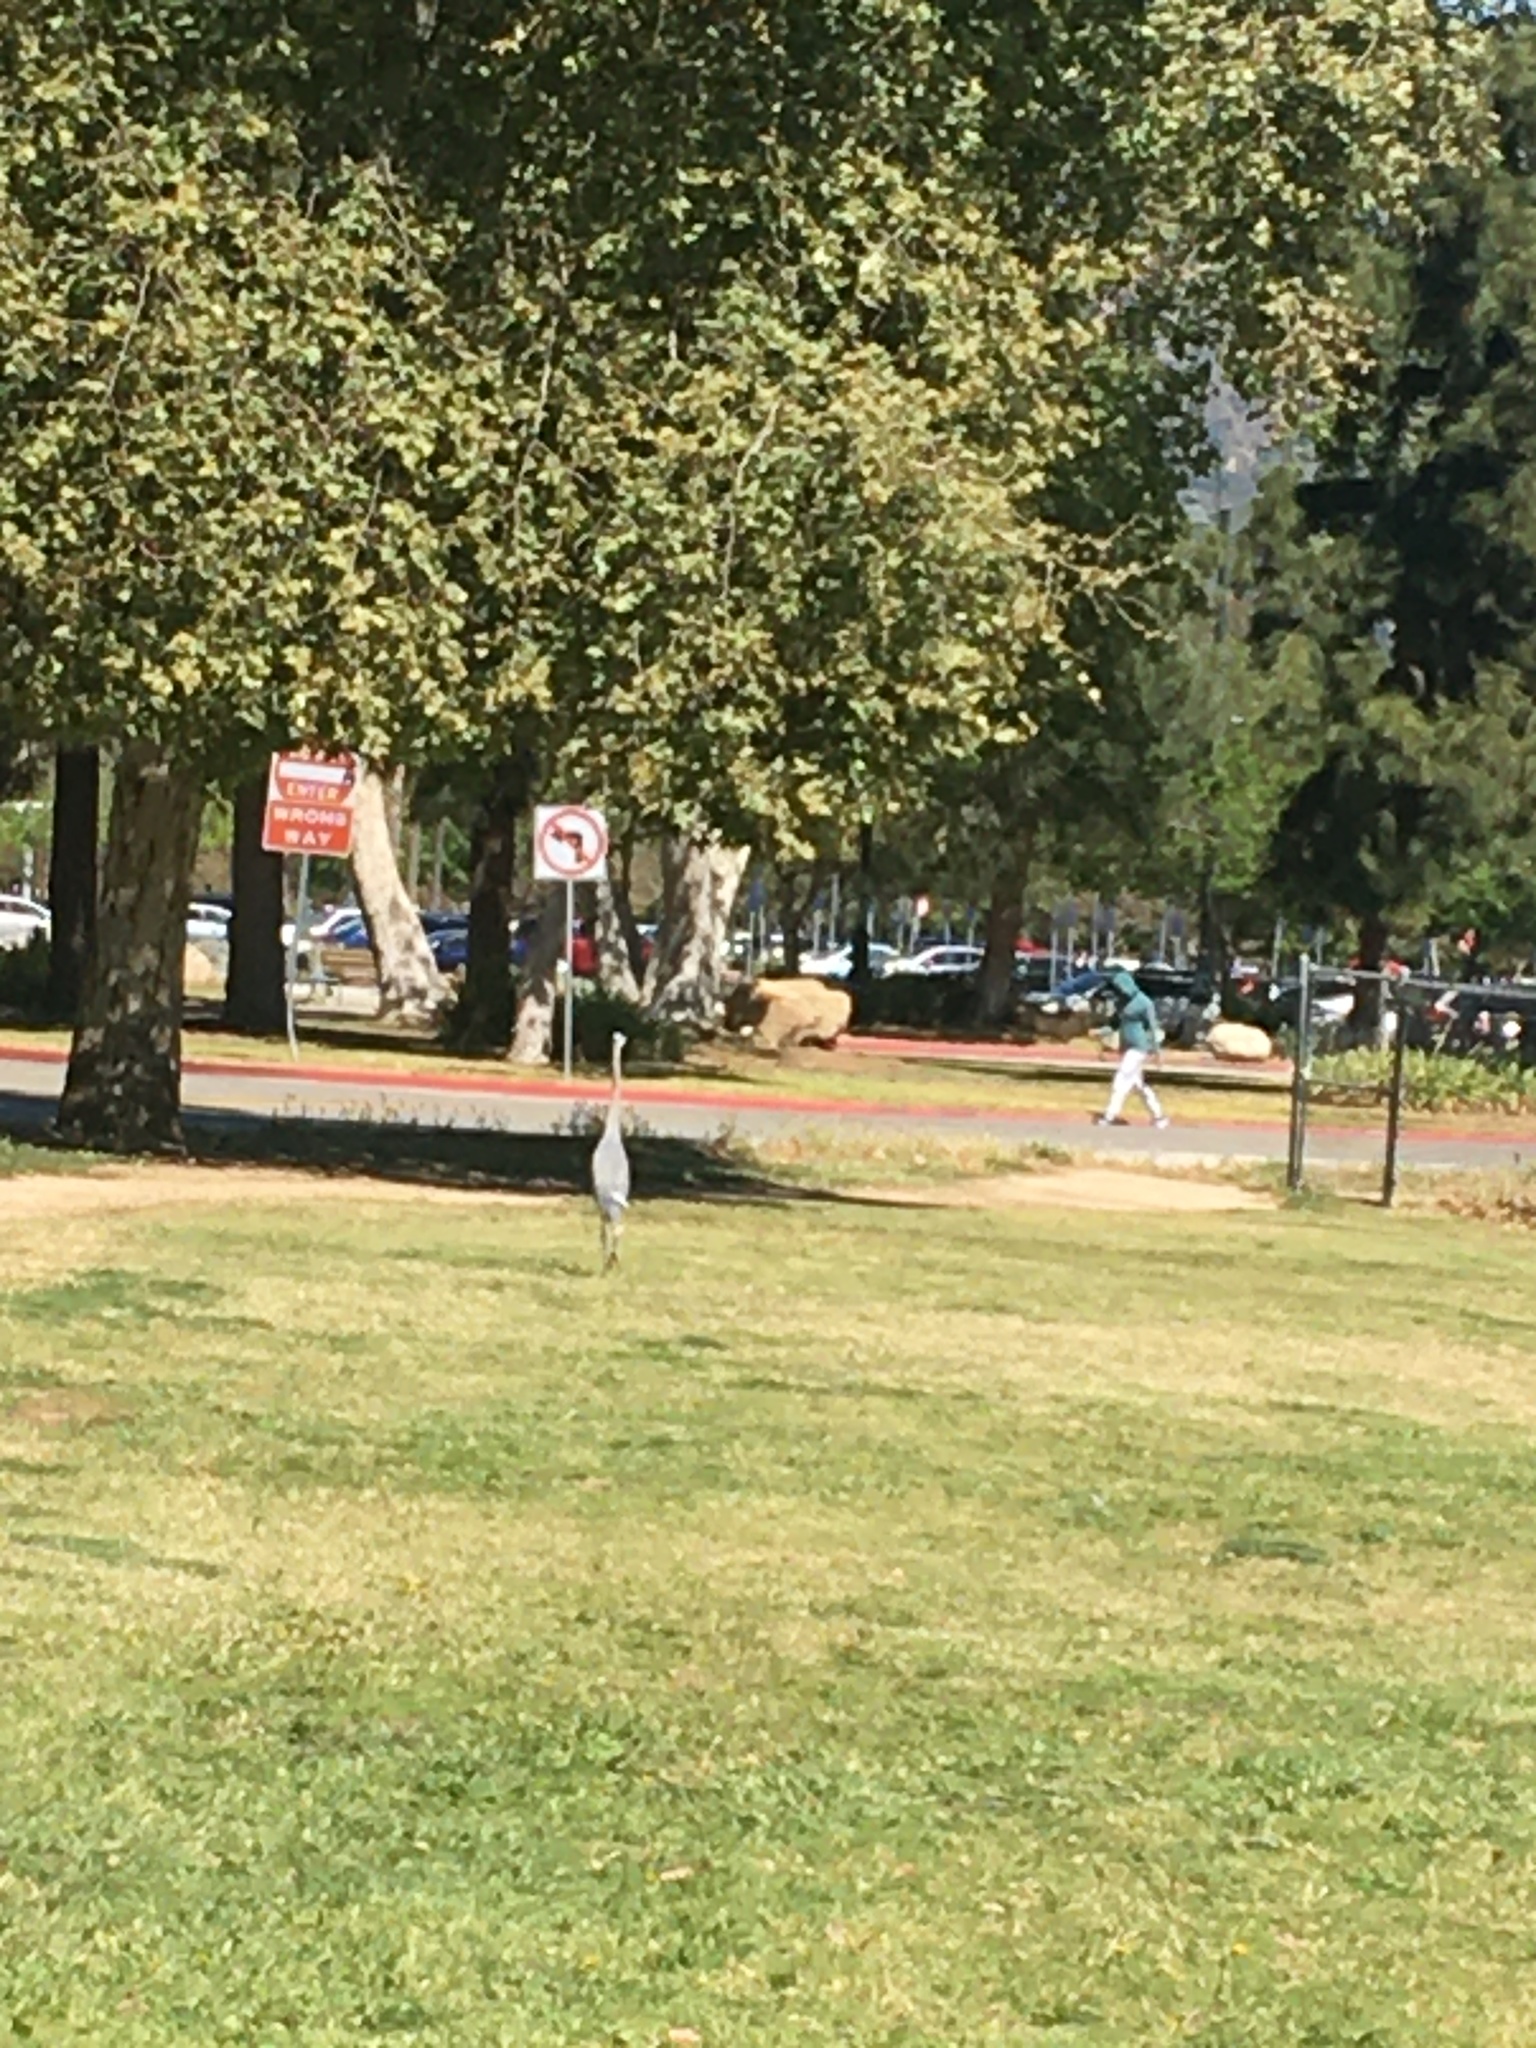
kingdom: Animalia
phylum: Chordata
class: Aves
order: Pelecaniformes
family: Ardeidae
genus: Ardea
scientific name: Ardea herodias
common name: Great blue heron
